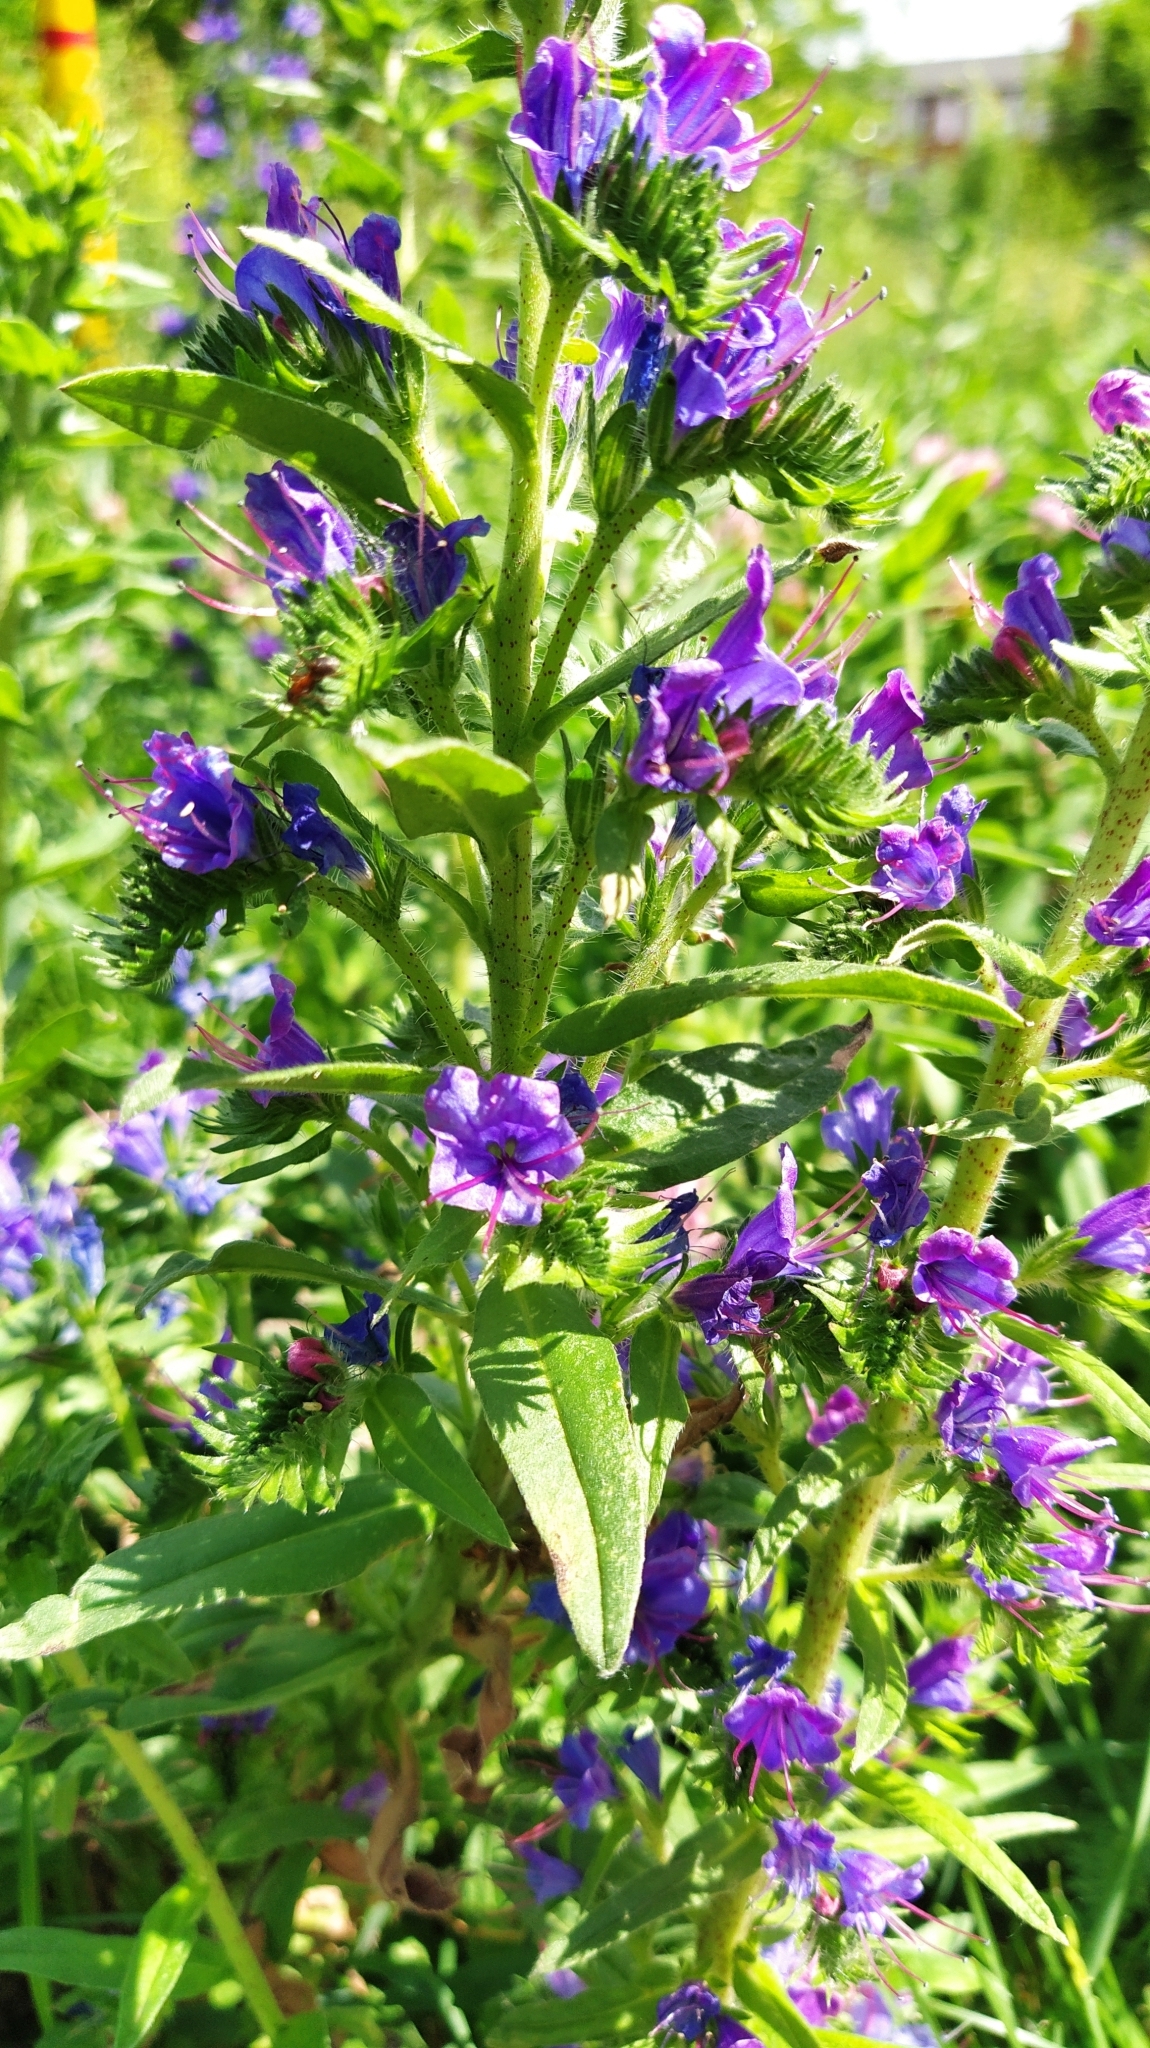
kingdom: Plantae
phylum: Tracheophyta
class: Magnoliopsida
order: Boraginales
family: Boraginaceae
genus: Echium
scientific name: Echium vulgare
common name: Common viper's bugloss
